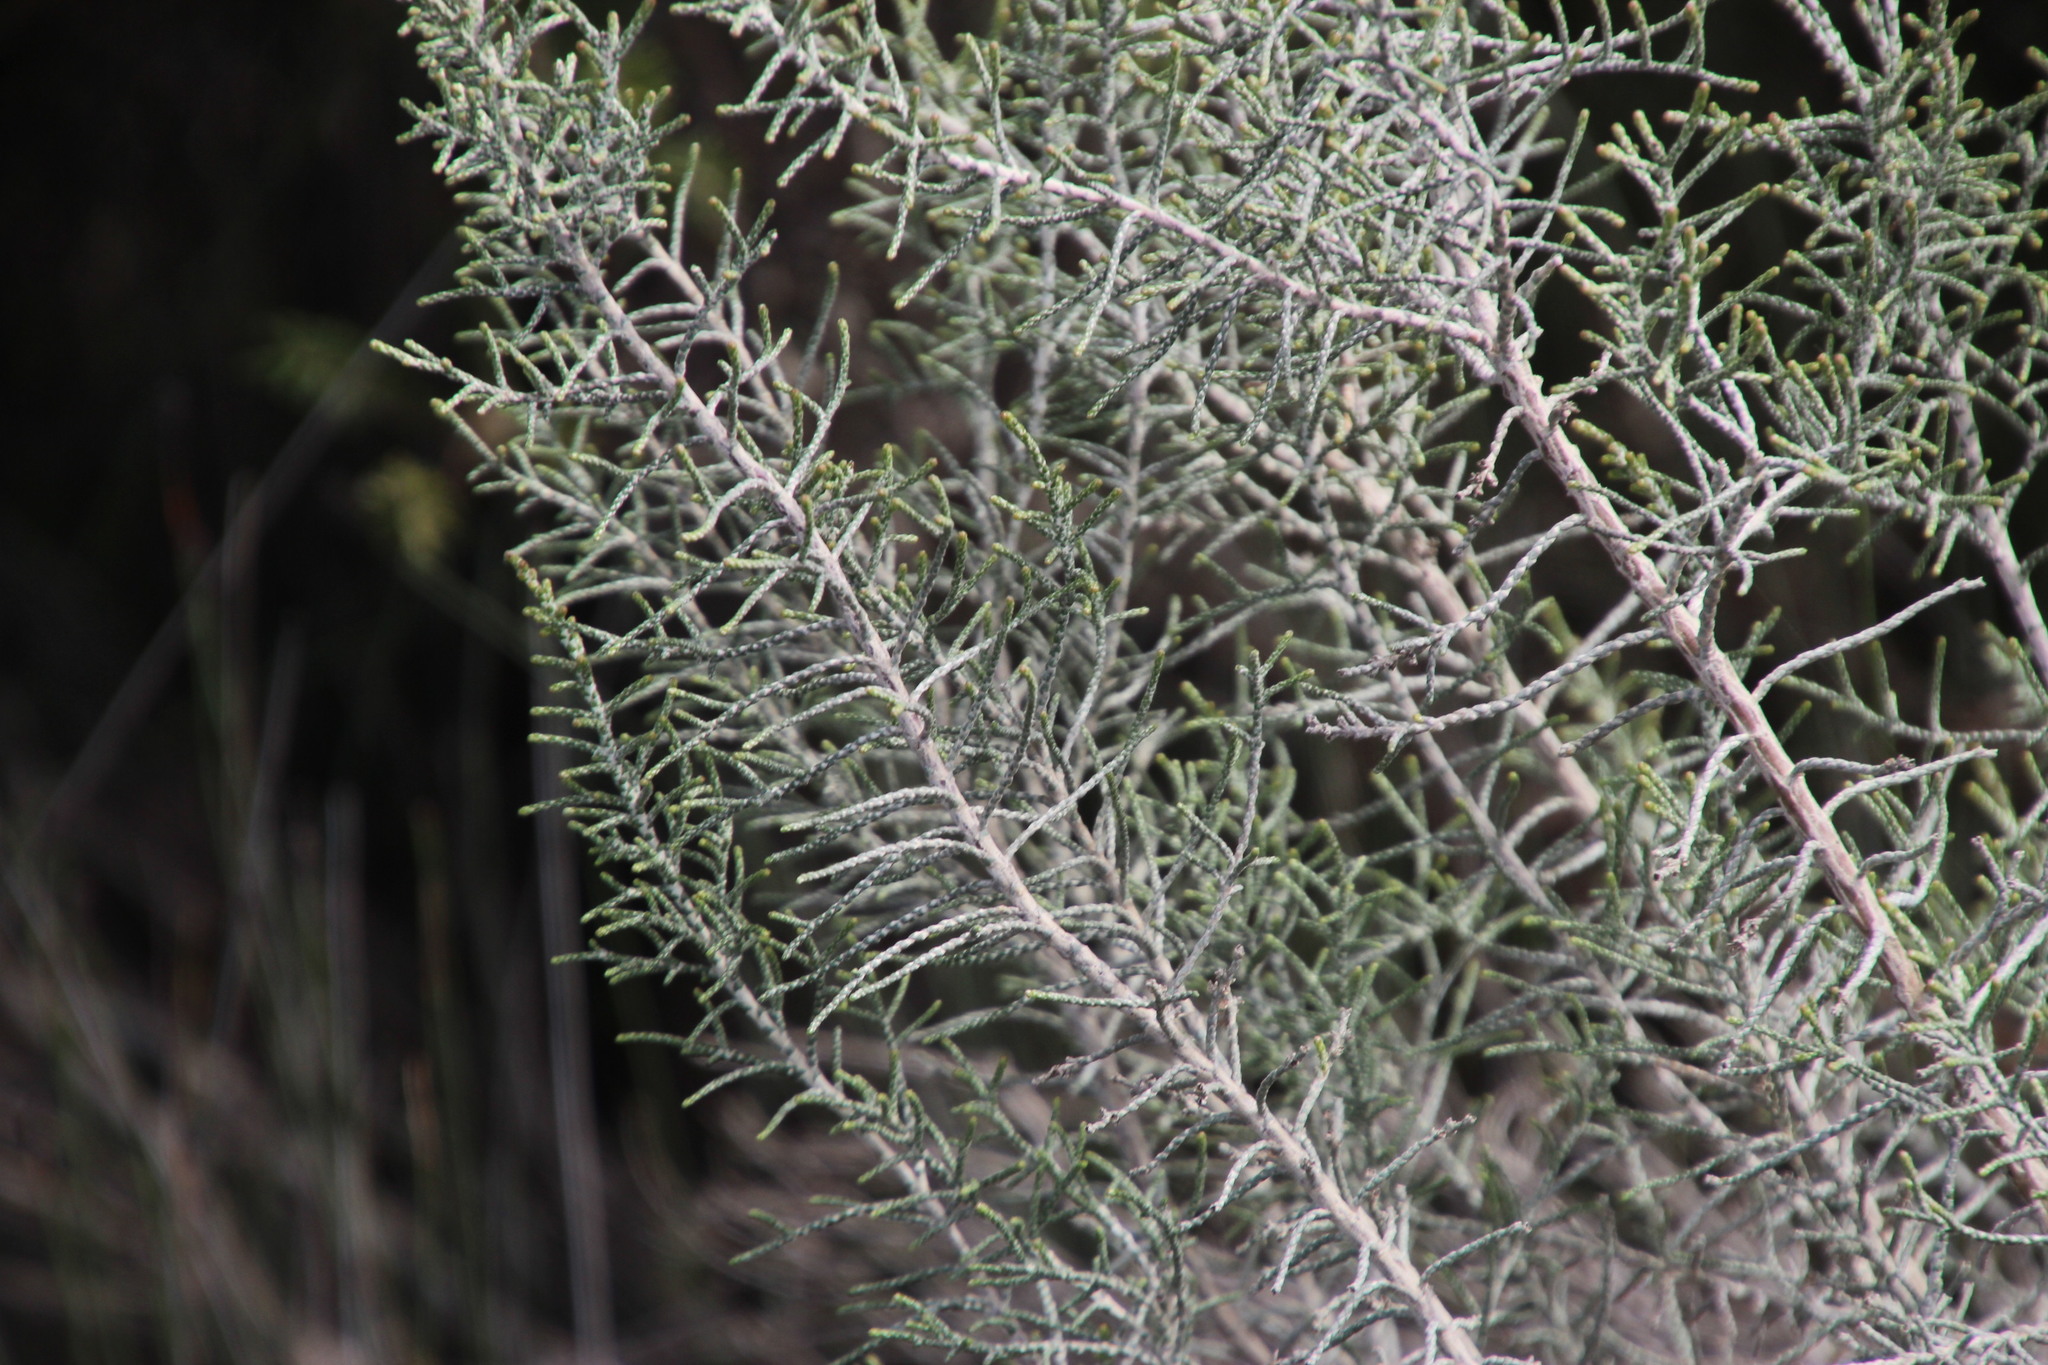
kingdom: Plantae
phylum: Tracheophyta
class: Magnoliopsida
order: Asterales
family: Asteraceae
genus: Dicerothamnus
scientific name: Dicerothamnus rhinocerotis
